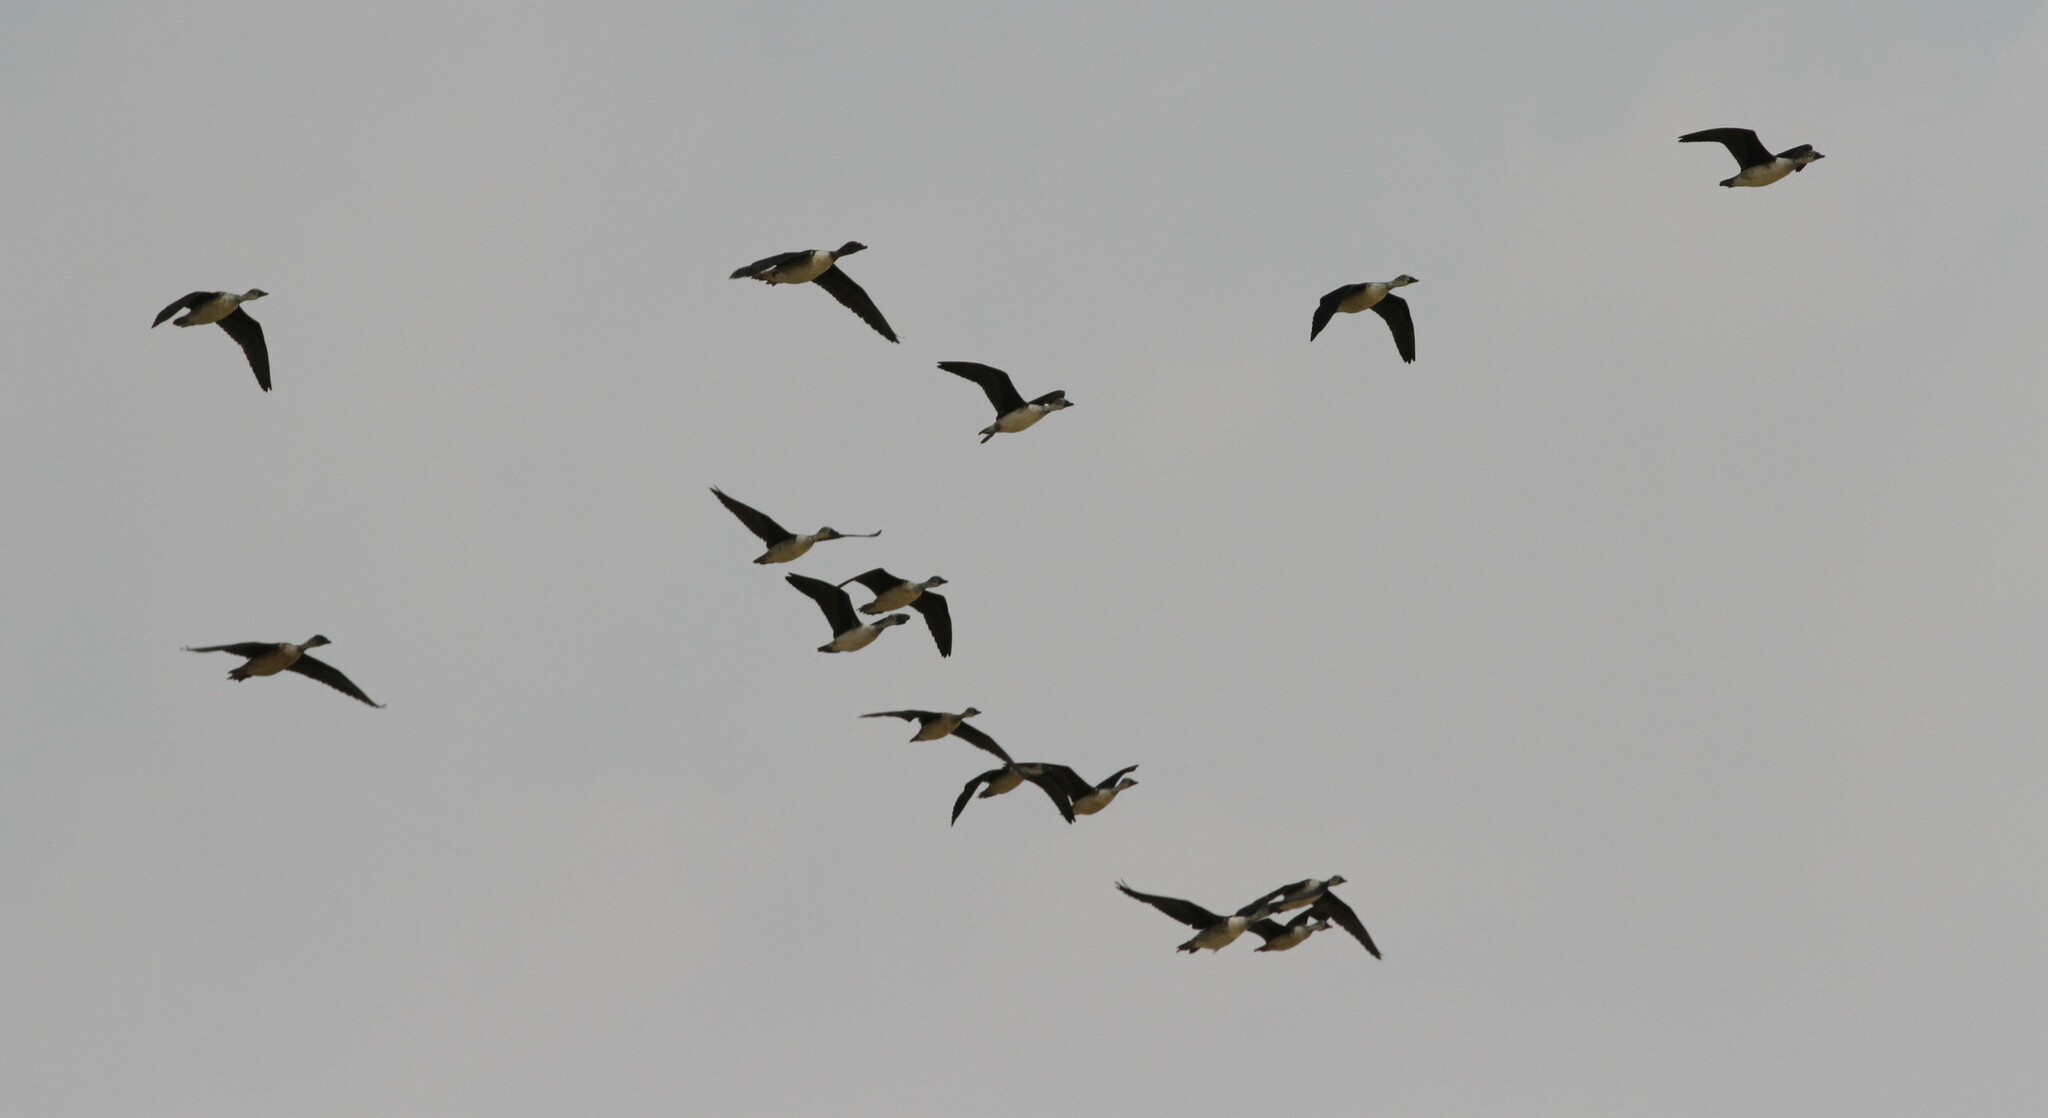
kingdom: Animalia
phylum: Chordata
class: Aves
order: Anseriformes
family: Anatidae
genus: Sarkidiornis
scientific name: Sarkidiornis melanotos
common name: Comb duck
